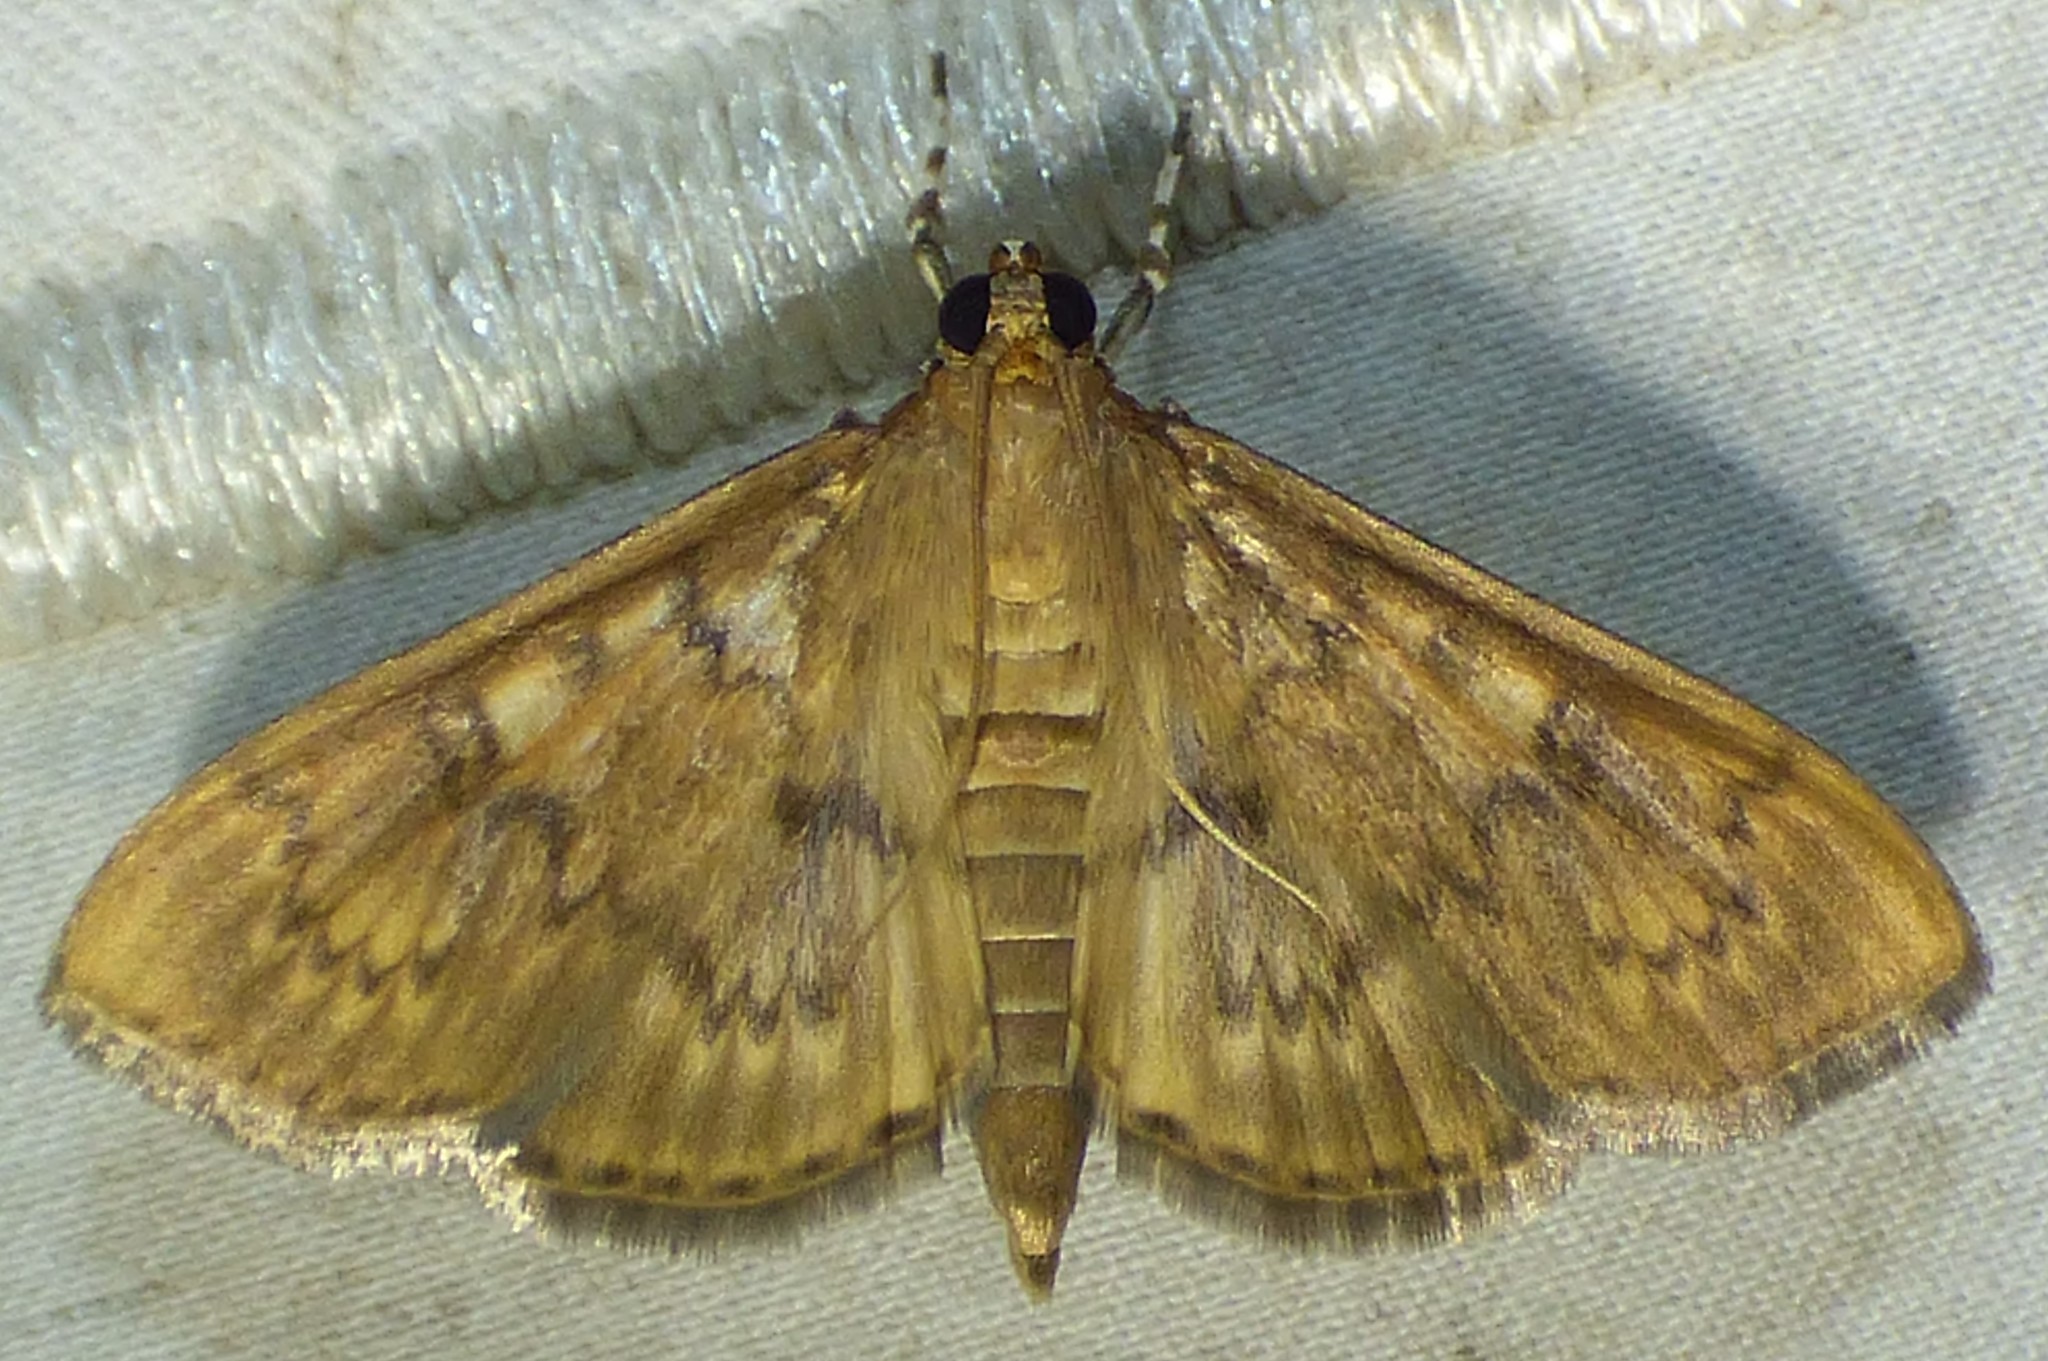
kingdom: Animalia
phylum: Arthropoda
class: Insecta
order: Lepidoptera
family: Crambidae
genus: Syllepte
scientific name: Syllepte obscuralis
